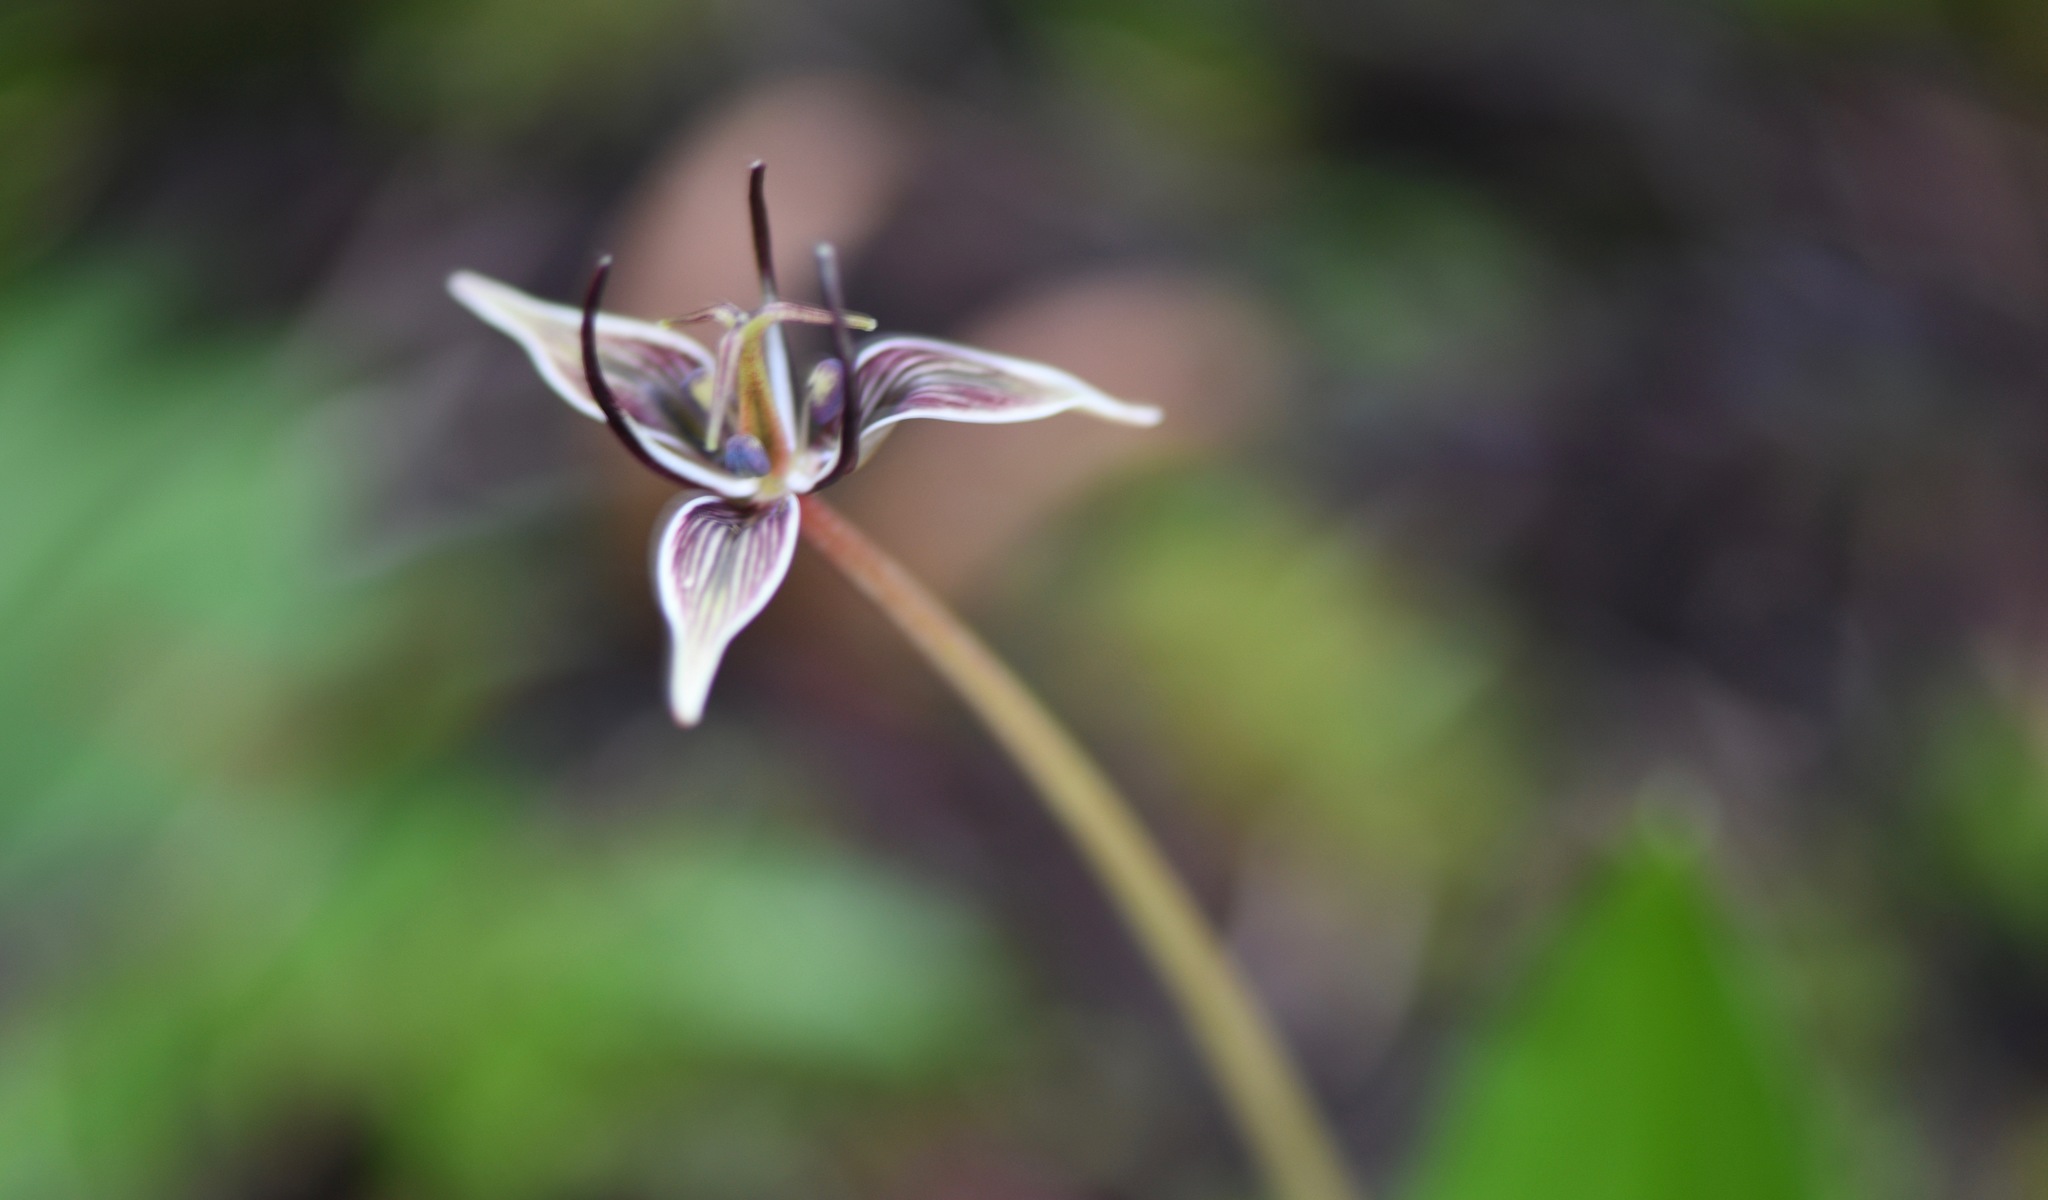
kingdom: Plantae
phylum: Tracheophyta
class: Liliopsida
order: Liliales
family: Liliaceae
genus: Scoliopus
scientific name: Scoliopus bigelovii
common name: Foetid adder's-tongue
